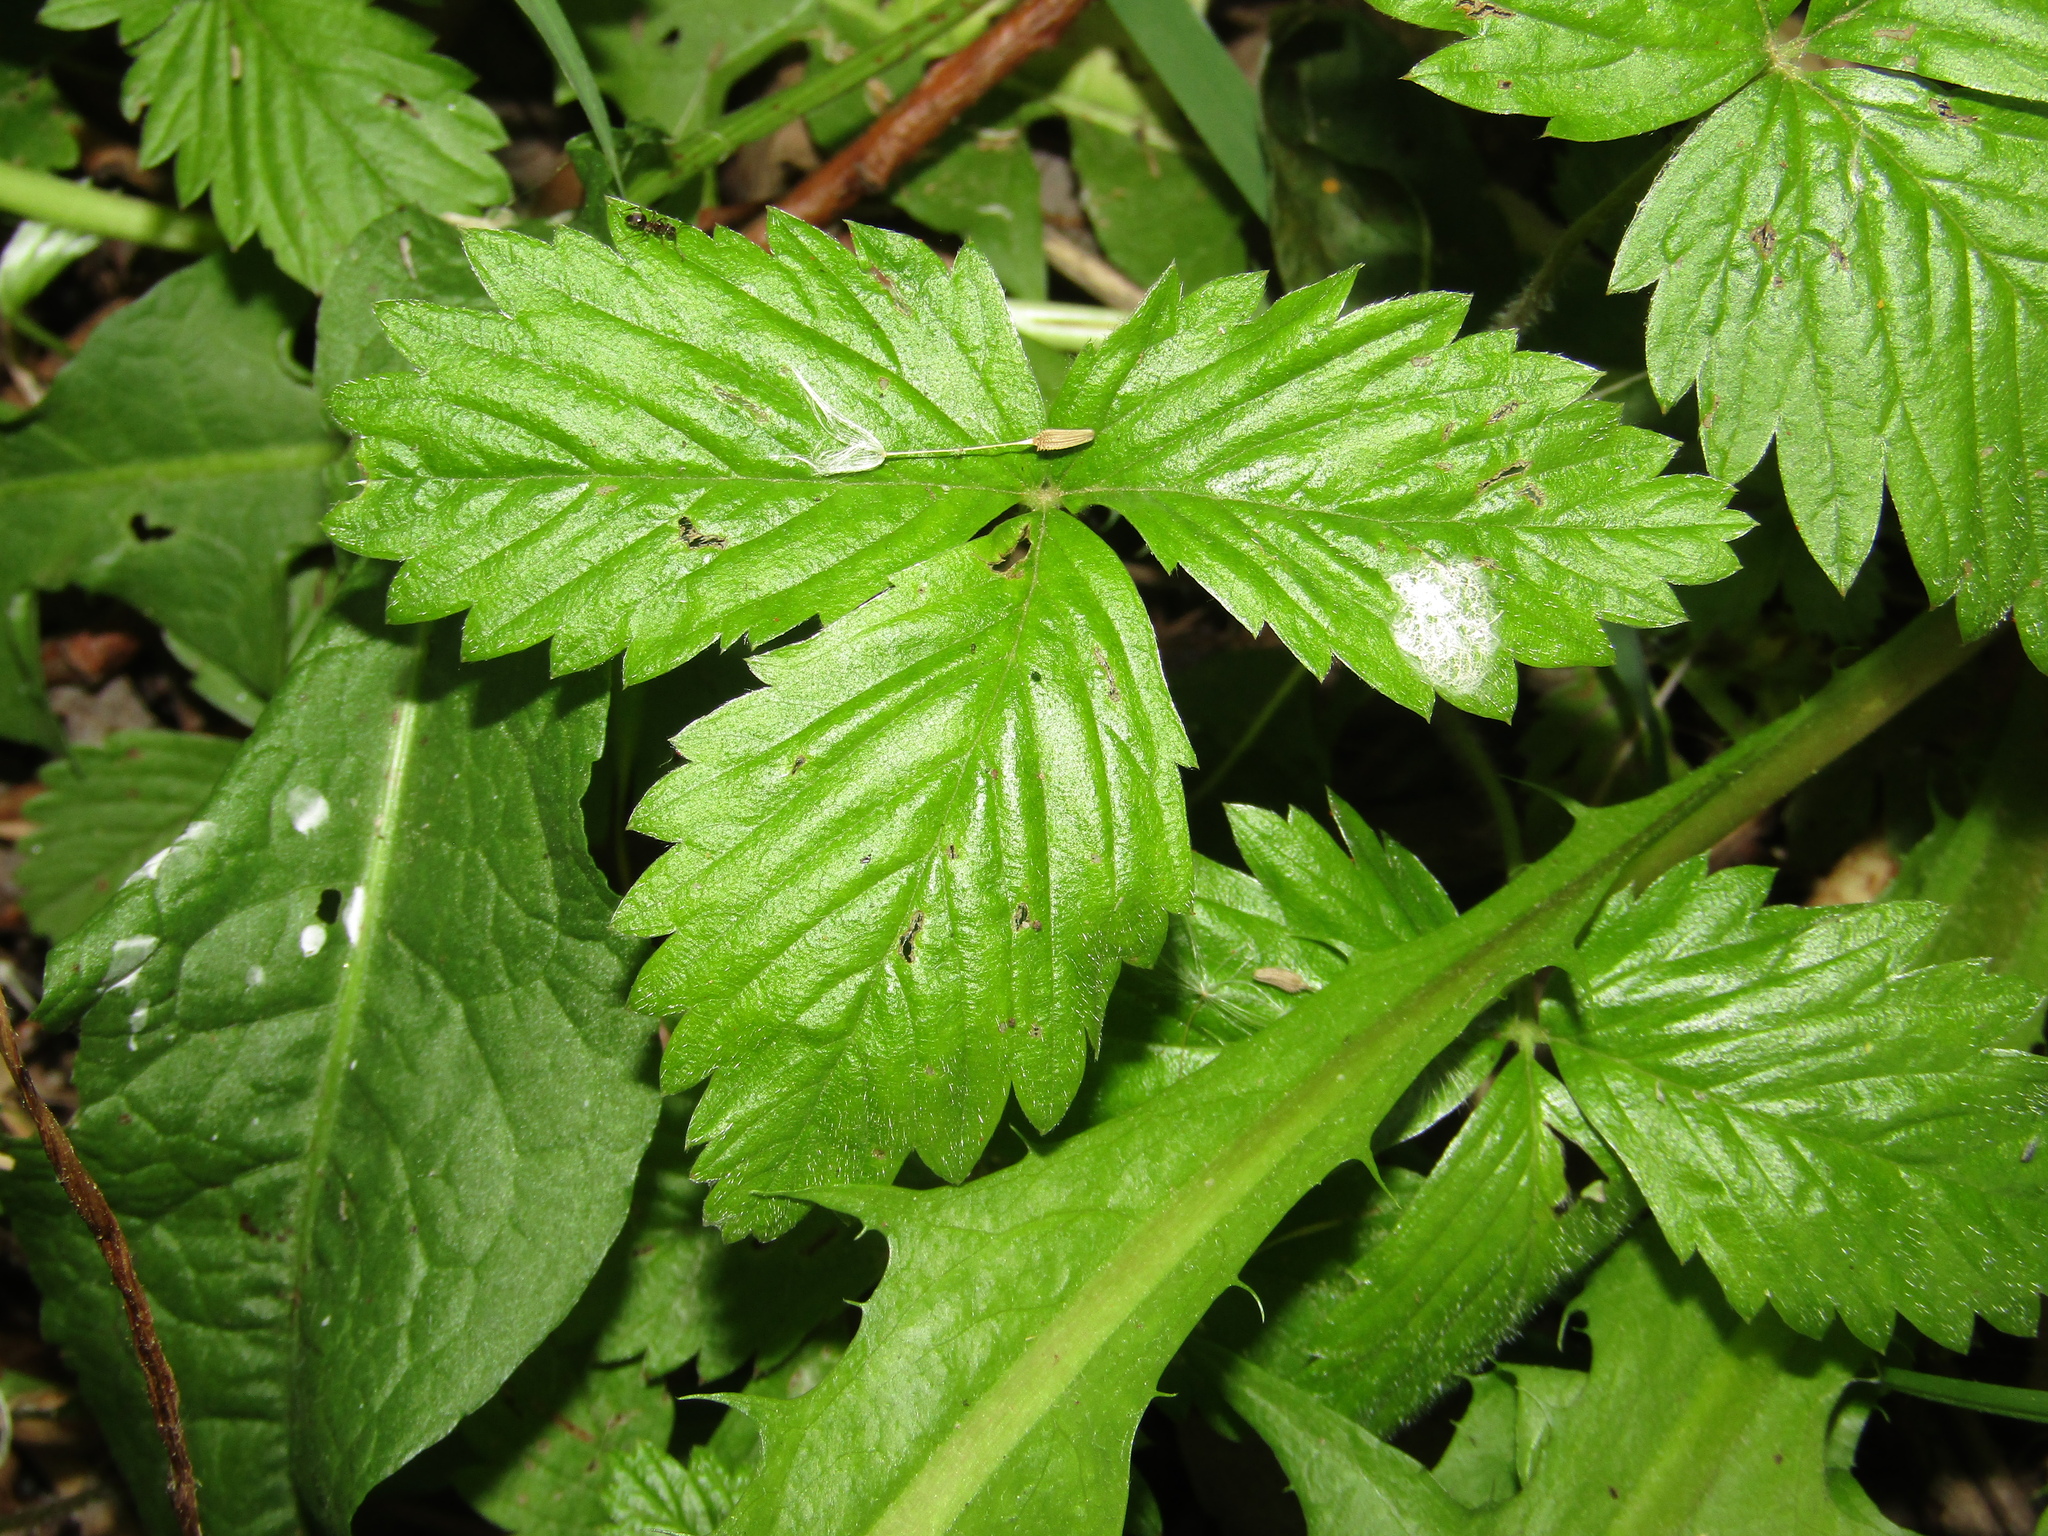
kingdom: Plantae
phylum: Tracheophyta
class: Magnoliopsida
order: Rosales
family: Rosaceae
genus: Fragaria
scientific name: Fragaria vesca
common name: Wild strawberry
